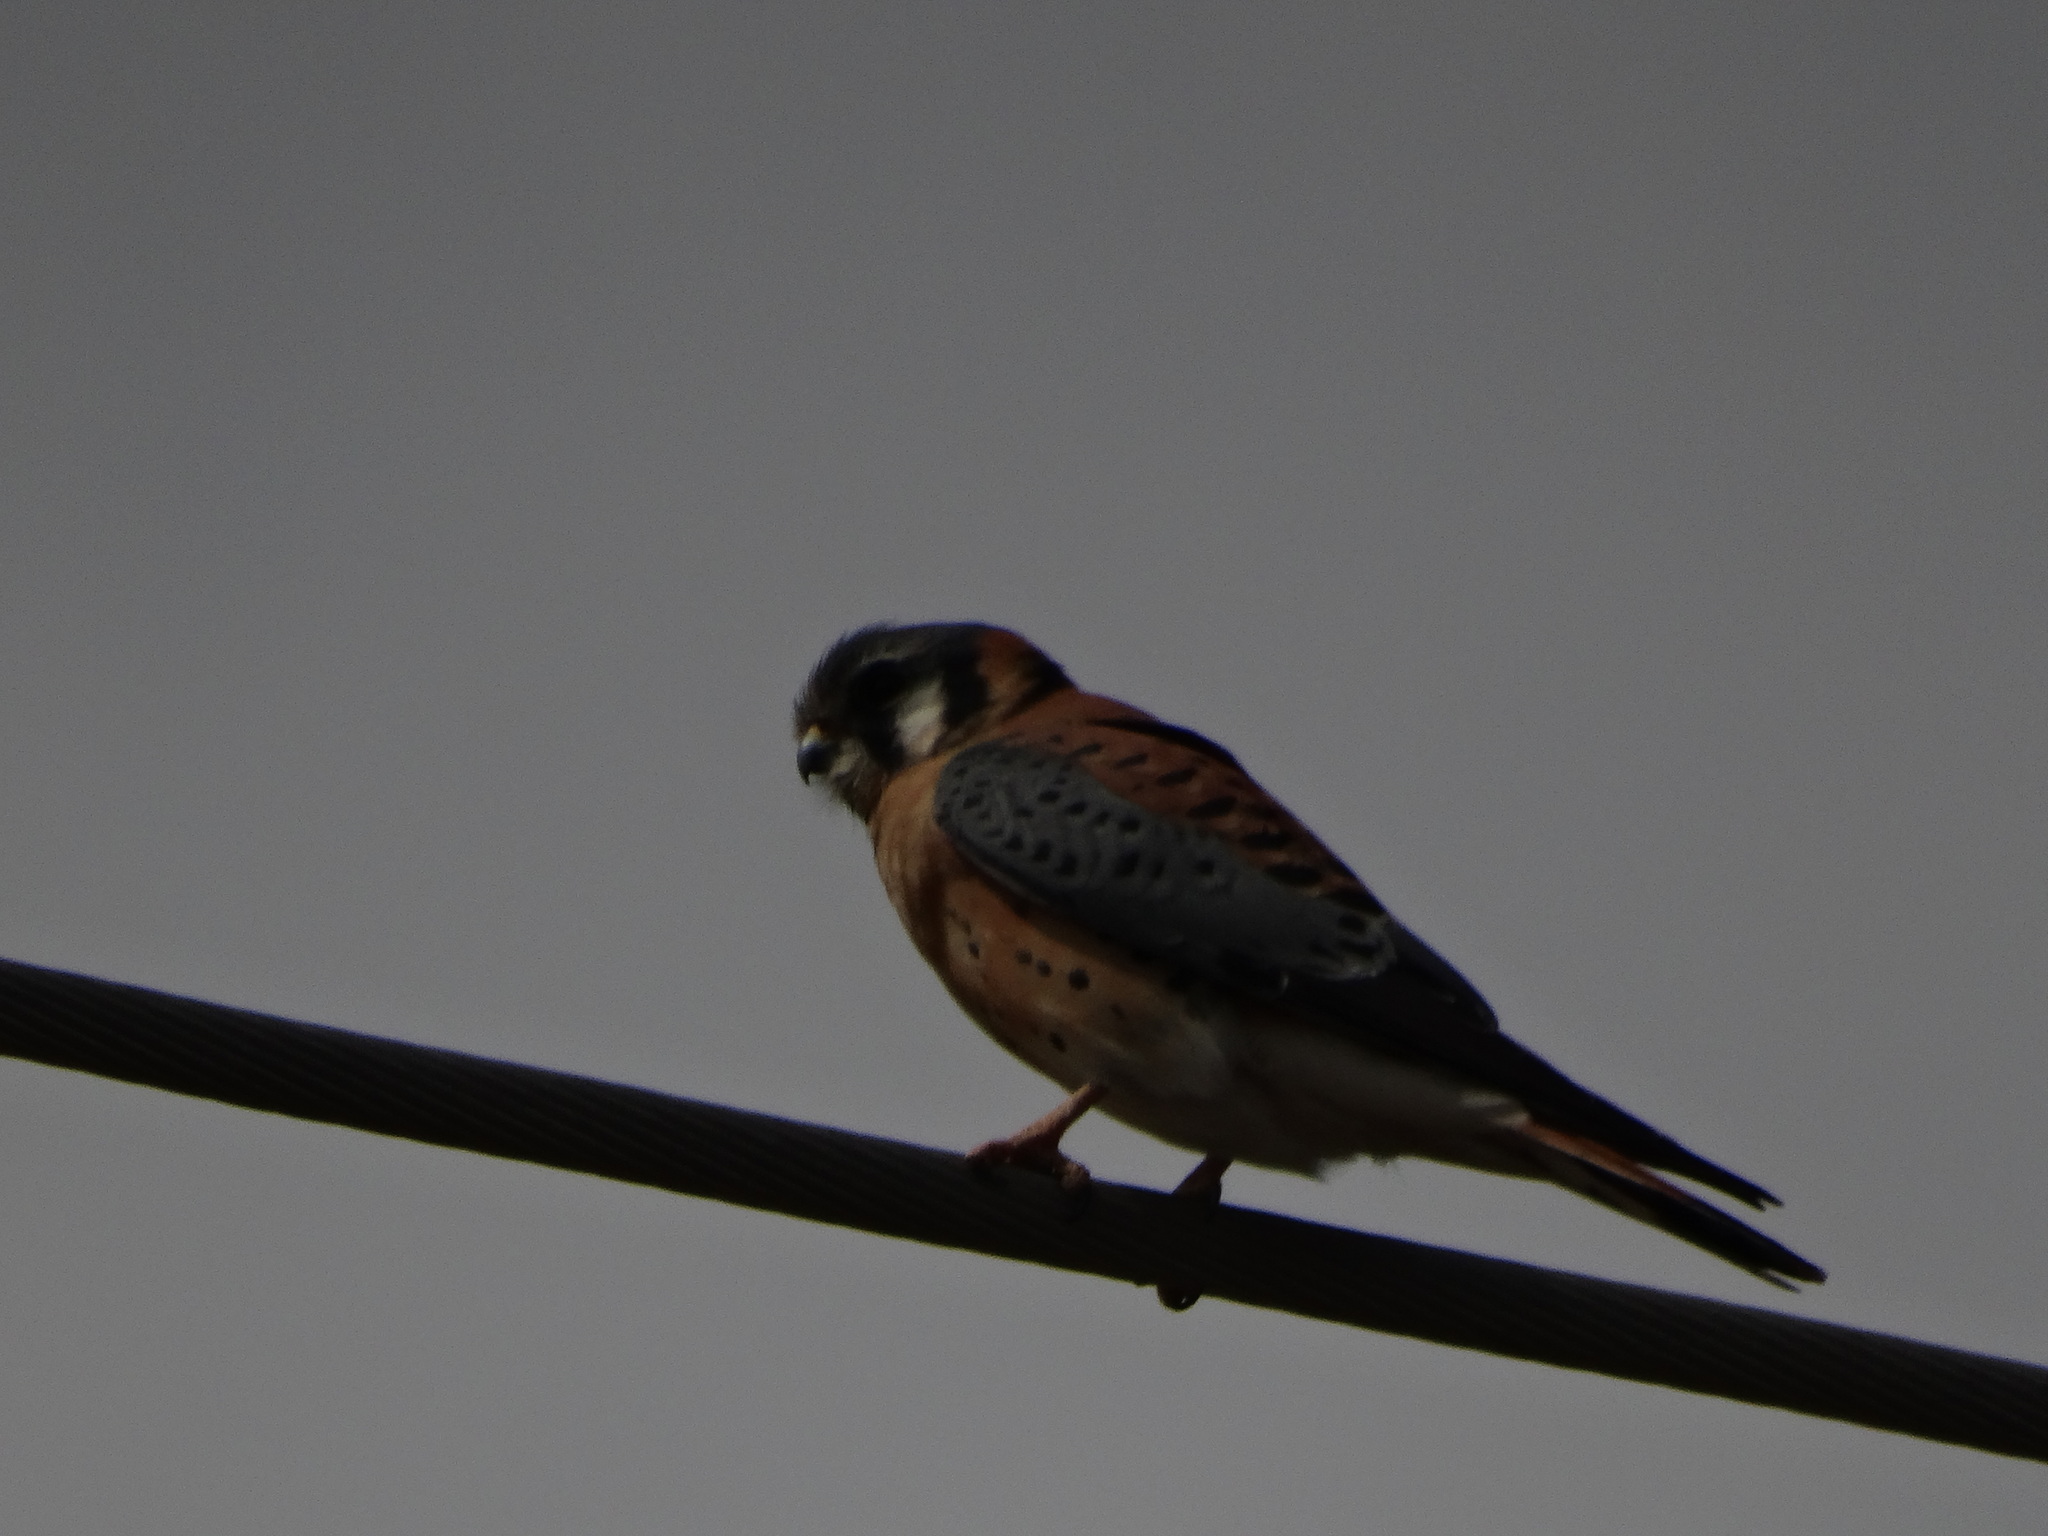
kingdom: Animalia
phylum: Chordata
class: Aves
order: Falconiformes
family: Falconidae
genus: Falco
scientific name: Falco sparverius
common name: American kestrel
